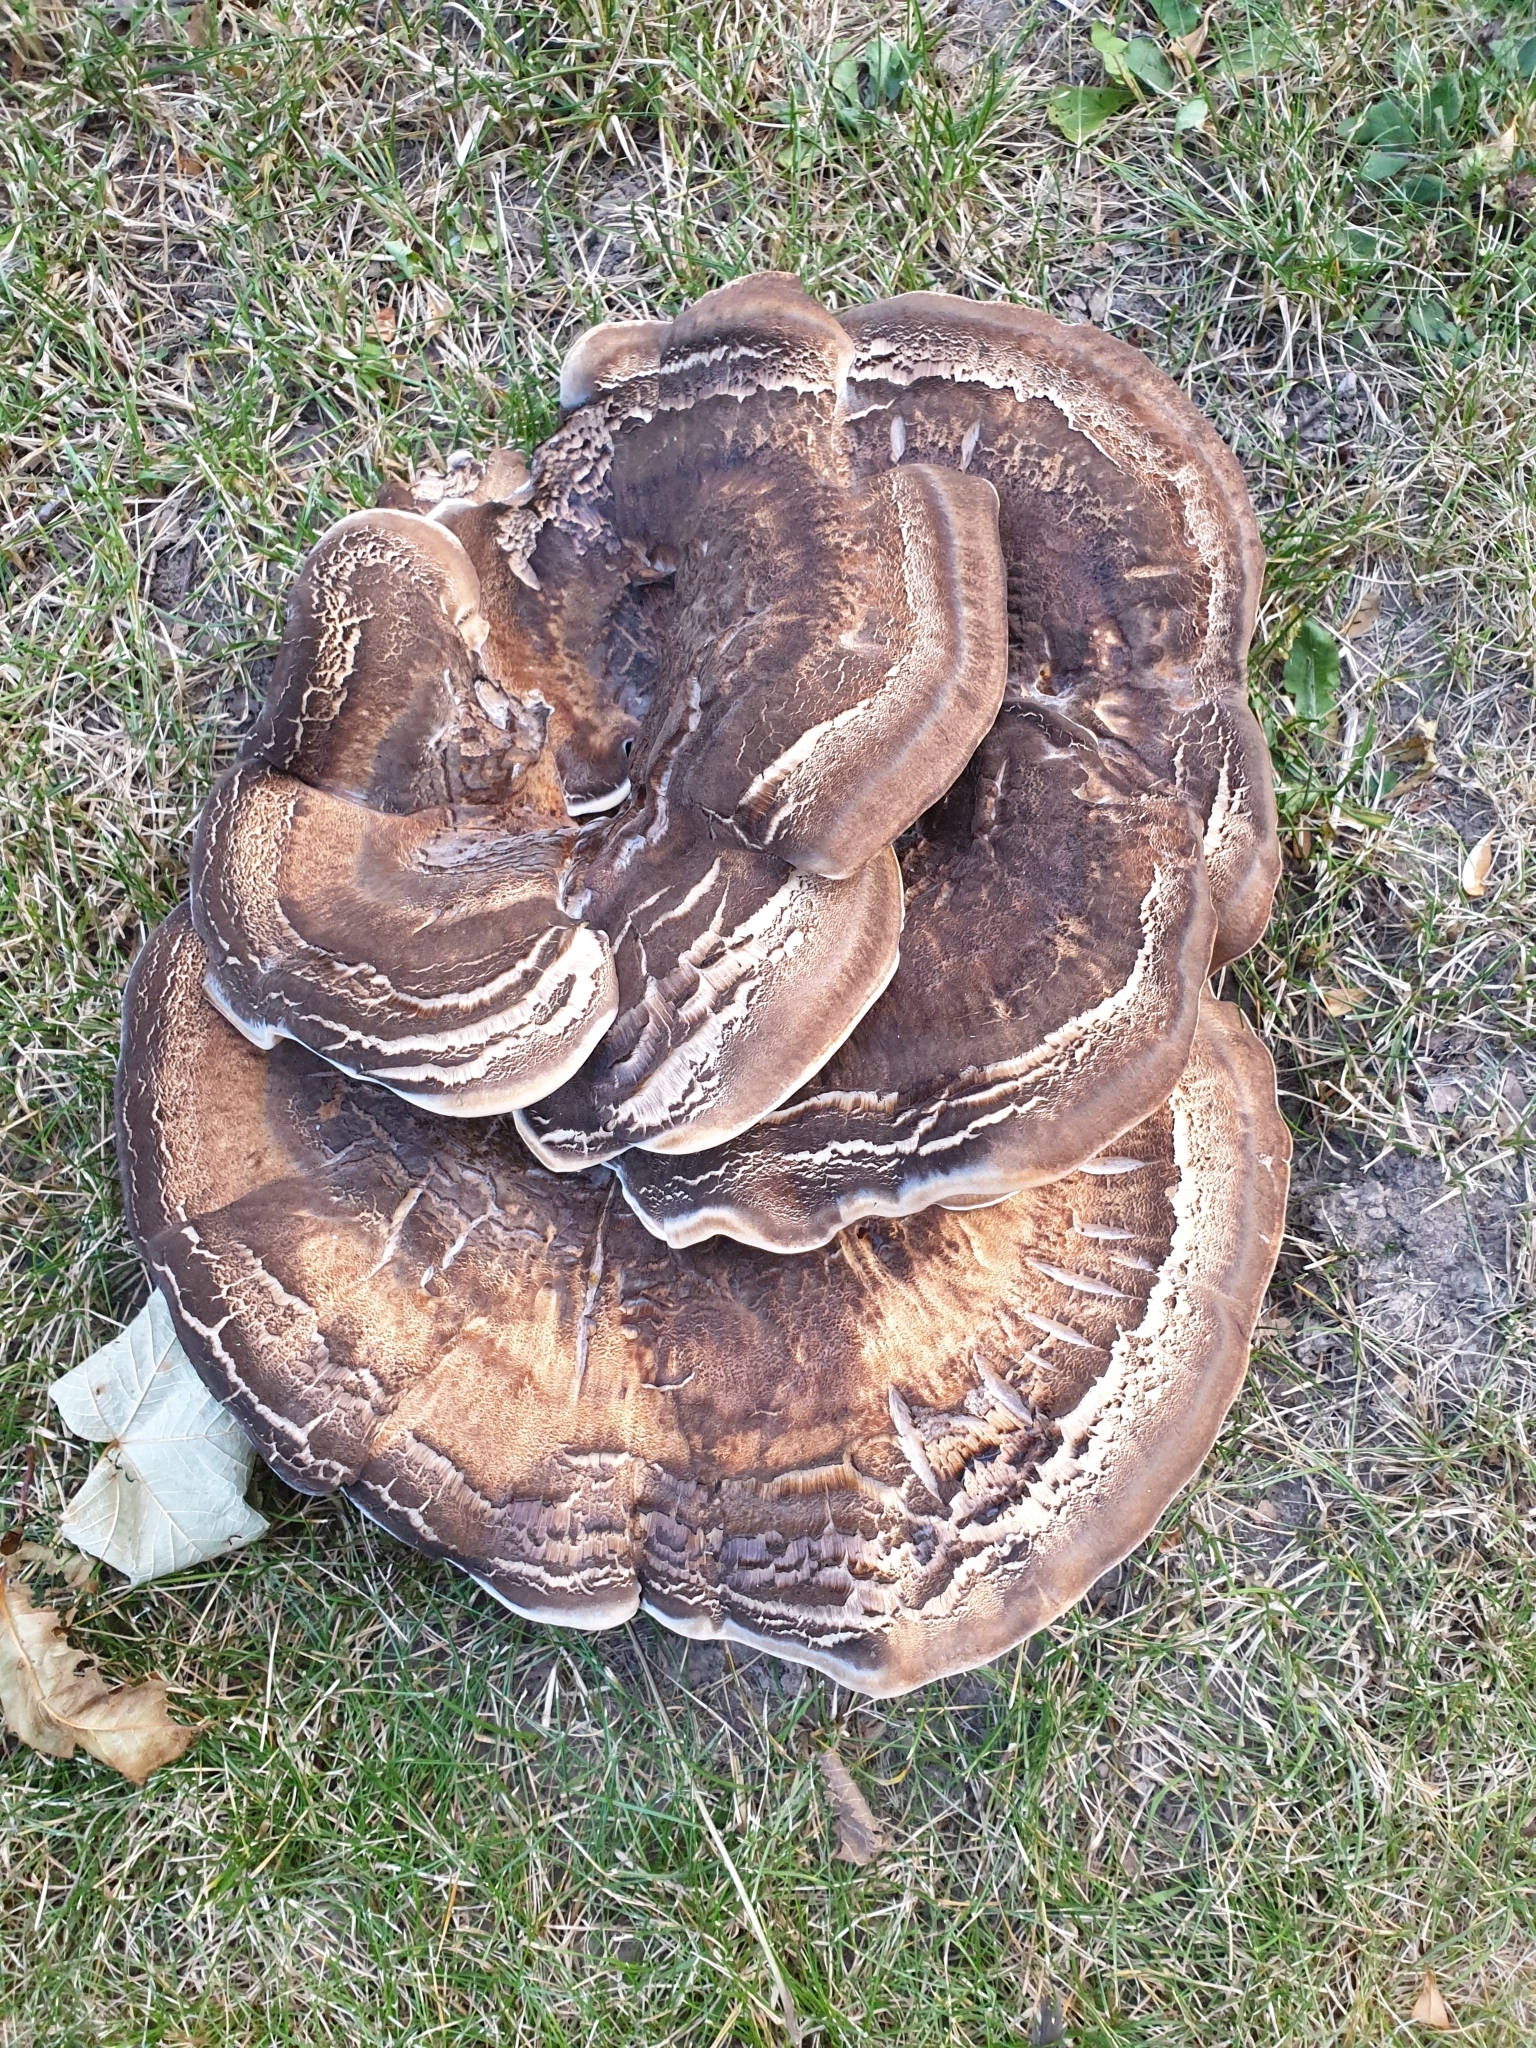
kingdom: Fungi
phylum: Basidiomycota
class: Agaricomycetes
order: Polyporales
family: Meripilaceae
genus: Meripilus
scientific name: Meripilus giganteus
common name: Giant polypore
